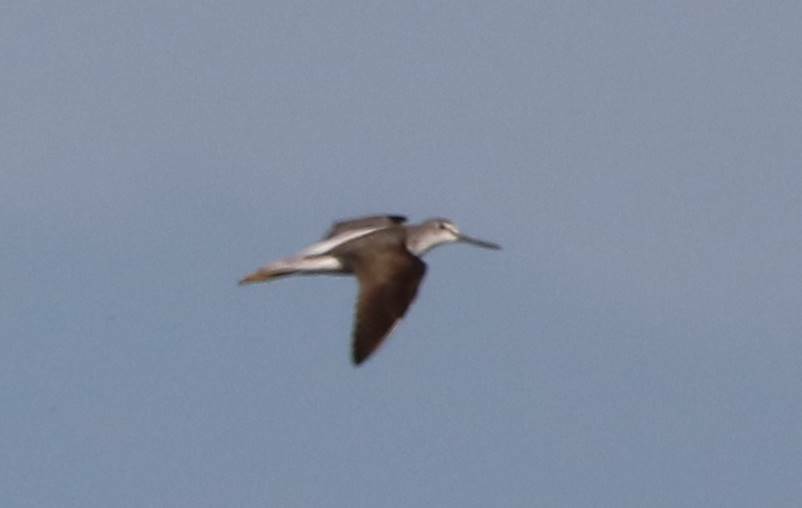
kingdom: Animalia
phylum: Chordata
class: Aves
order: Charadriiformes
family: Scolopacidae
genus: Tringa
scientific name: Tringa nebularia
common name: Common greenshank
